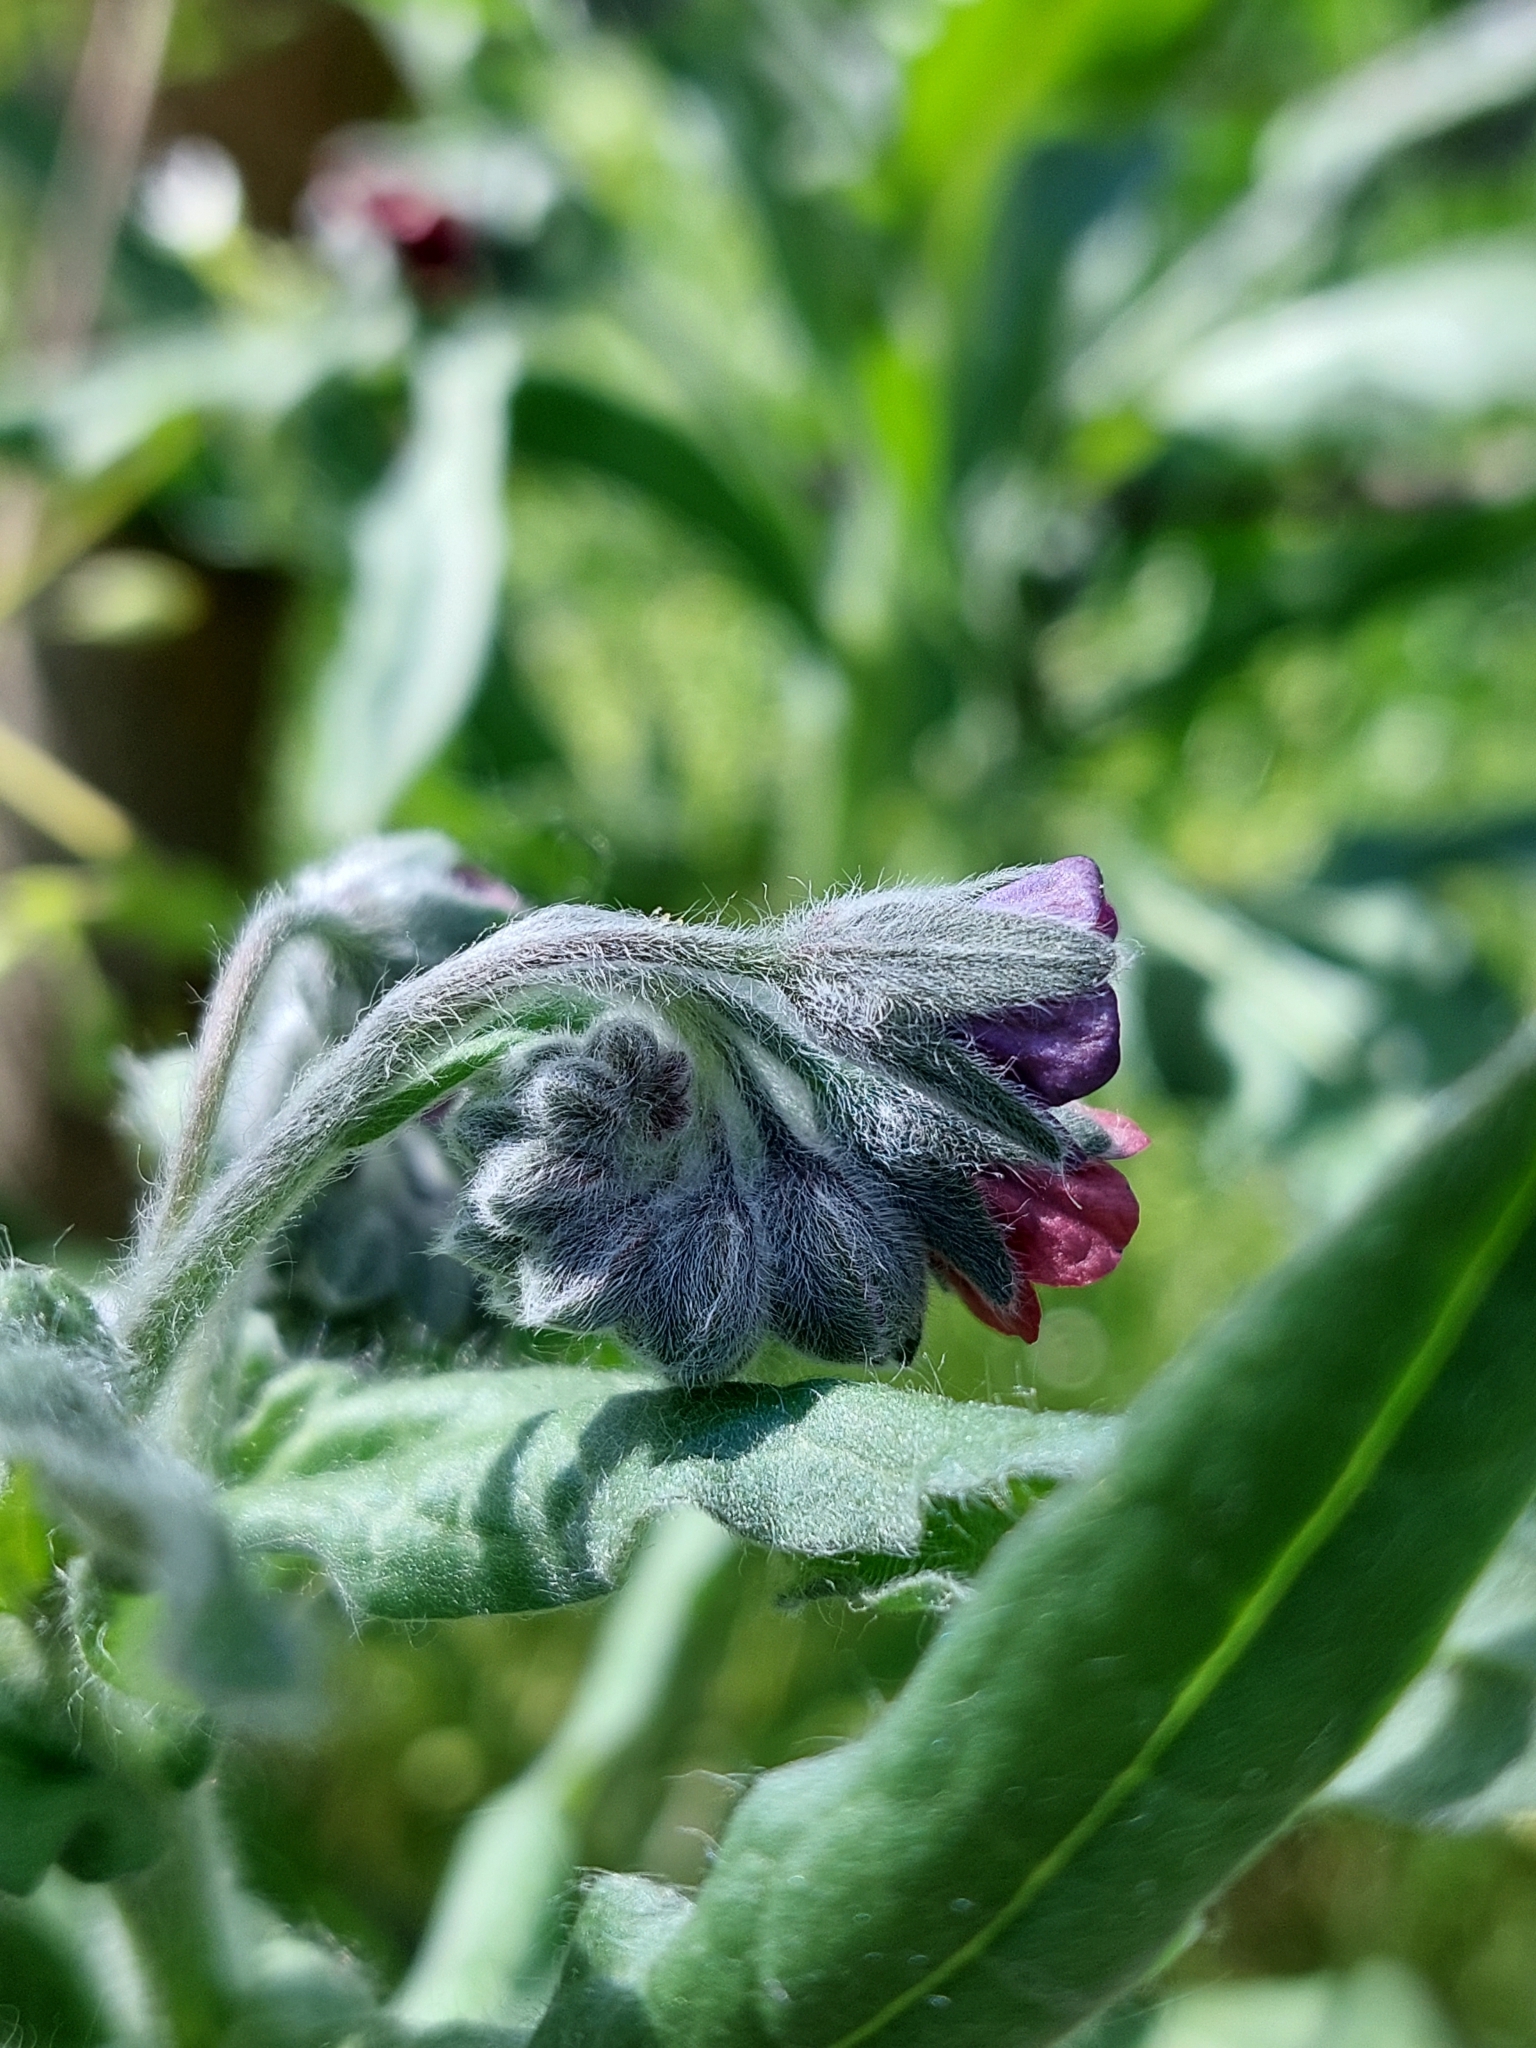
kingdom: Plantae
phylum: Tracheophyta
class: Magnoliopsida
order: Boraginales
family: Boraginaceae
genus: Cynoglossum
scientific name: Cynoglossum officinale
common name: Hound's-tongue
